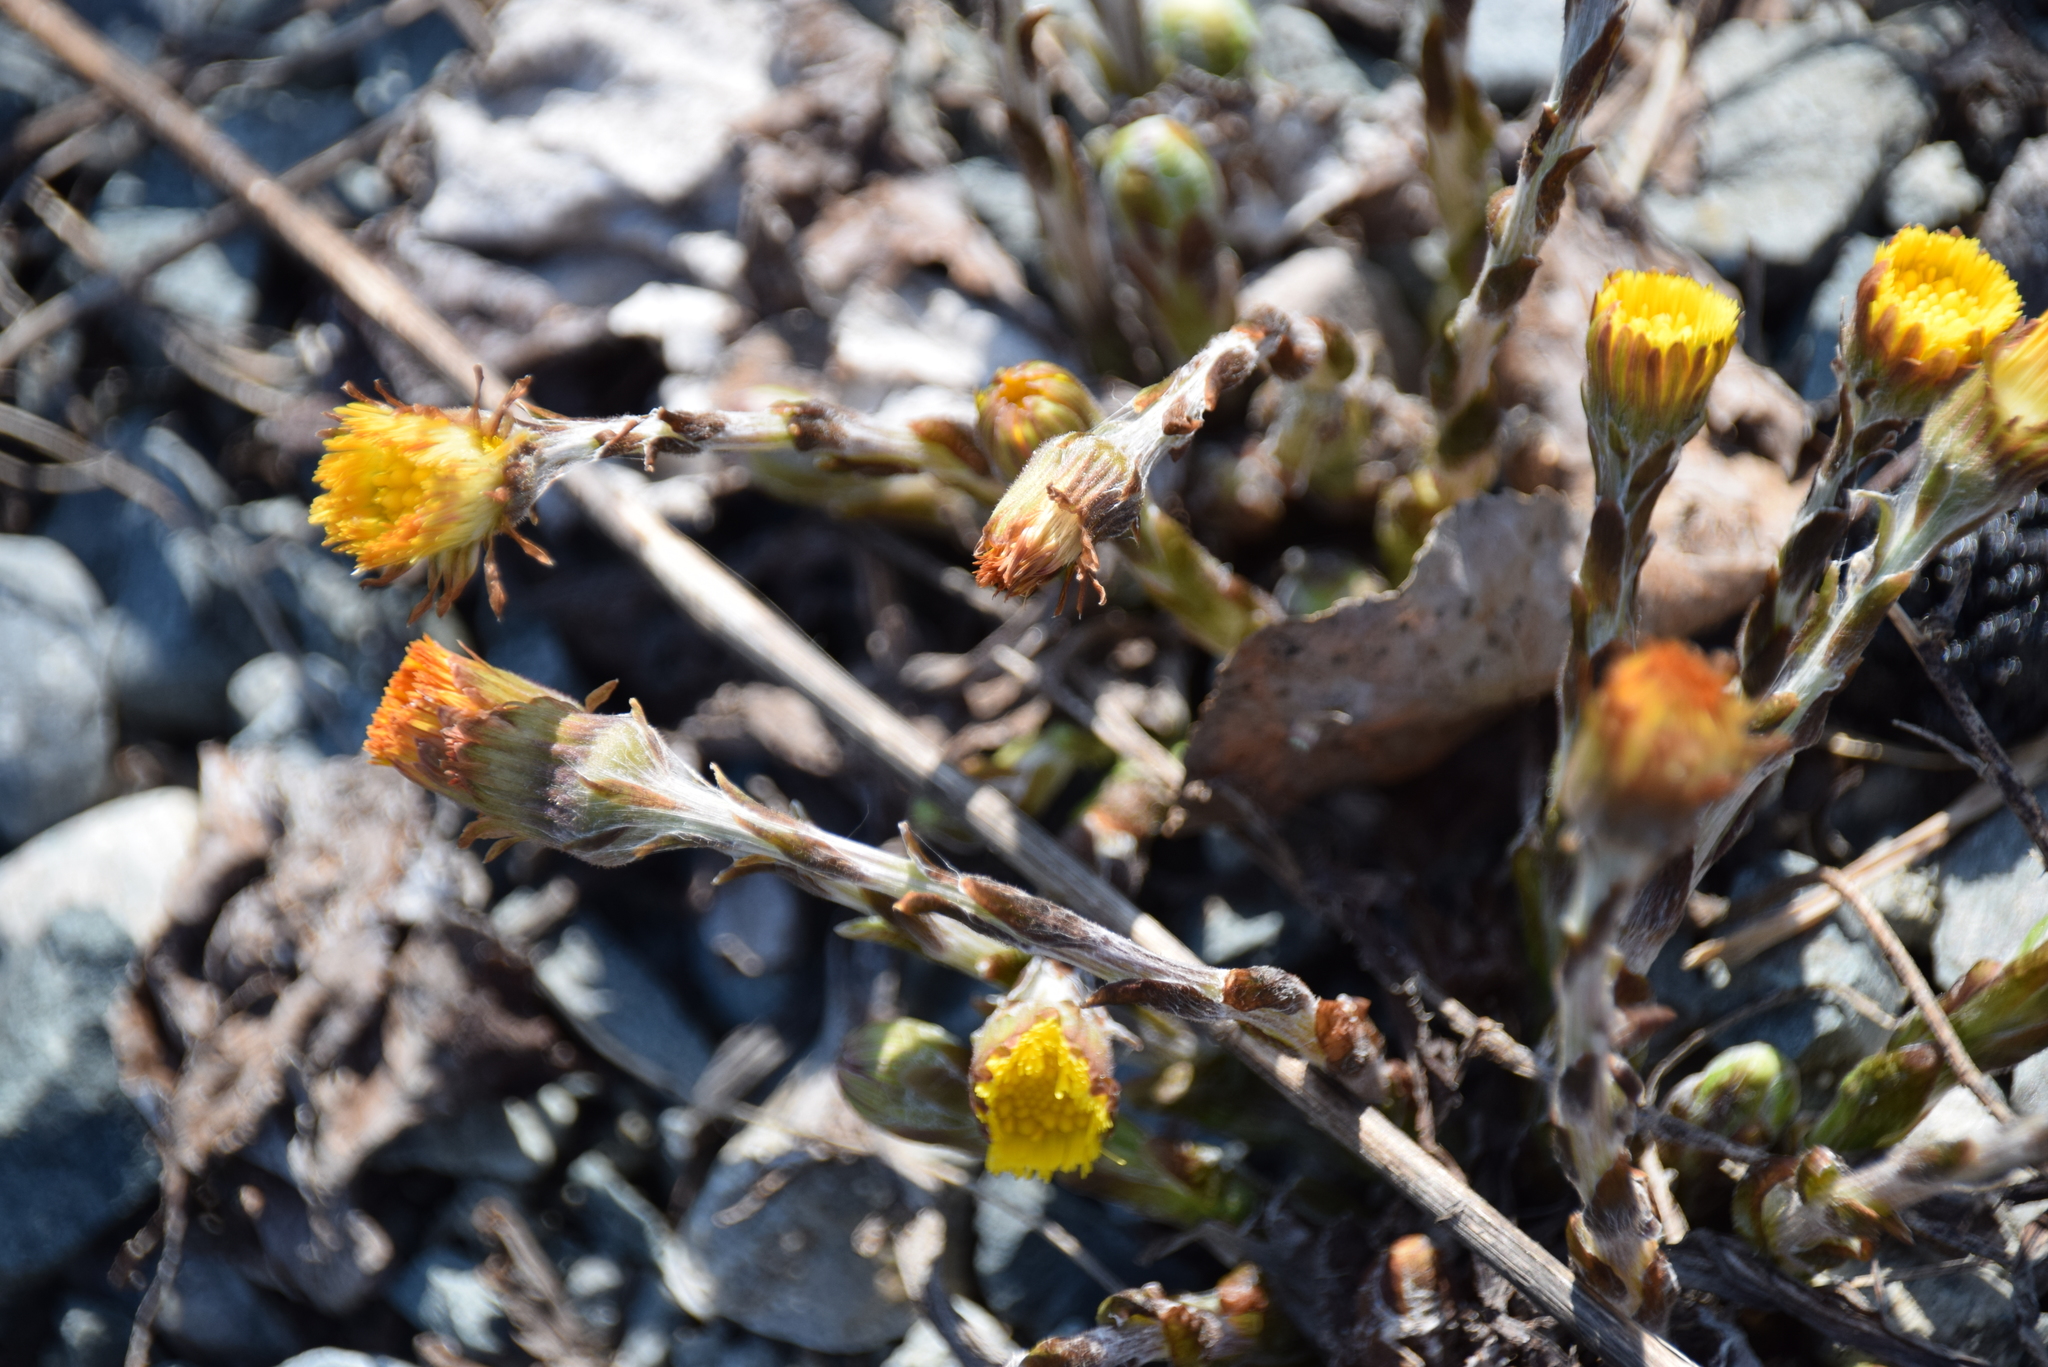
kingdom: Plantae
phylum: Tracheophyta
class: Magnoliopsida
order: Asterales
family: Asteraceae
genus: Tussilago
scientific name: Tussilago farfara
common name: Coltsfoot
